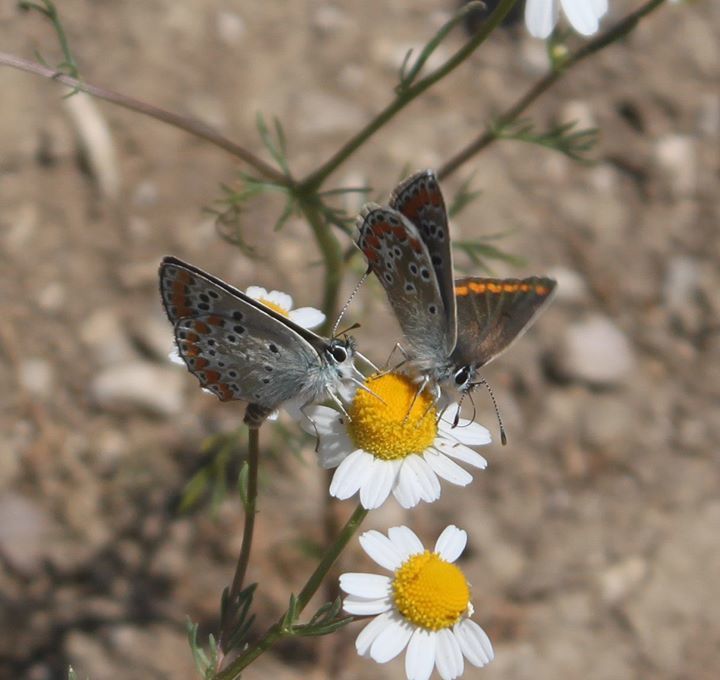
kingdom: Animalia
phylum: Arthropoda
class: Insecta
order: Lepidoptera
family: Lycaenidae
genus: Aricia
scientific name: Aricia agestis
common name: Brown argus
